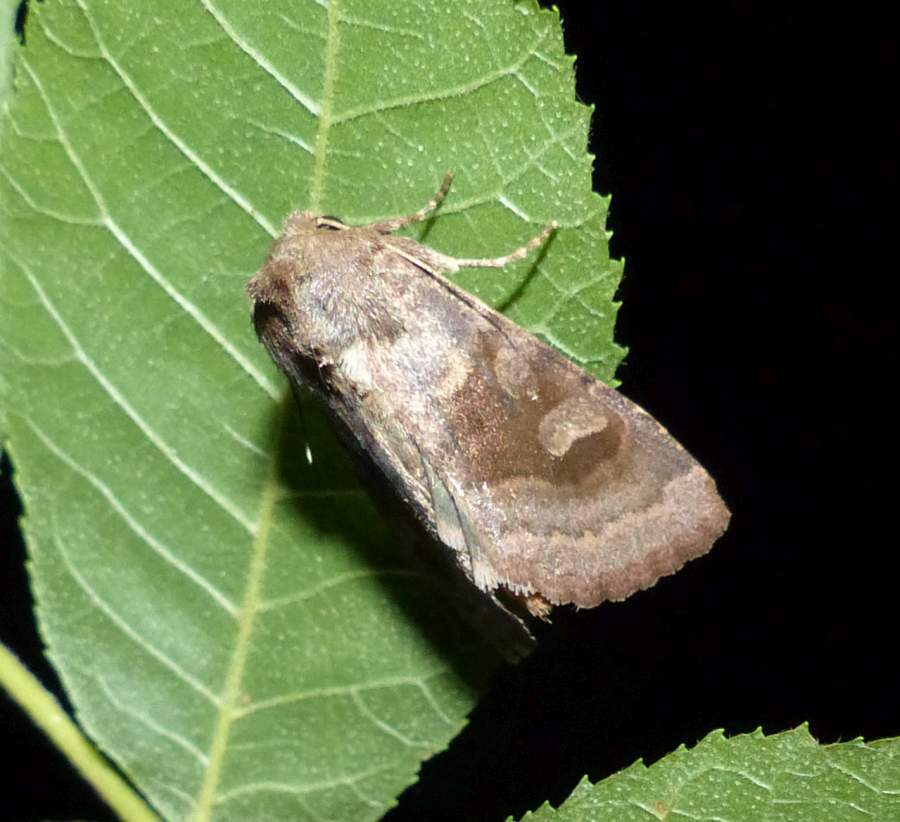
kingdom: Animalia
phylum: Arthropoda
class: Insecta
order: Lepidoptera
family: Noctuidae
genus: Nephelodes
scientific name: Nephelodes minians
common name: Bronzed cutworm
